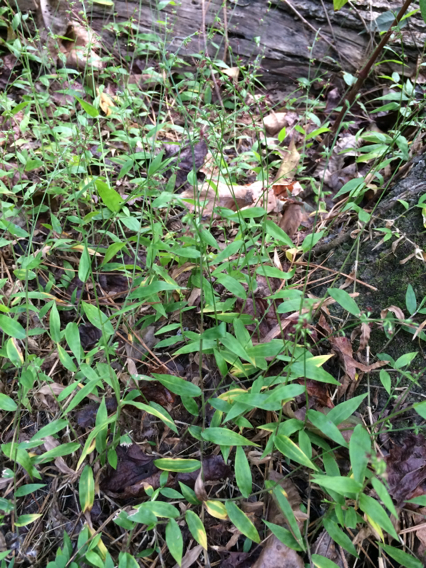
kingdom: Plantae
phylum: Tracheophyta
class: Liliopsida
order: Poales
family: Poaceae
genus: Oplismenus
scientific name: Oplismenus hirtellus
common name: Basketgrass
